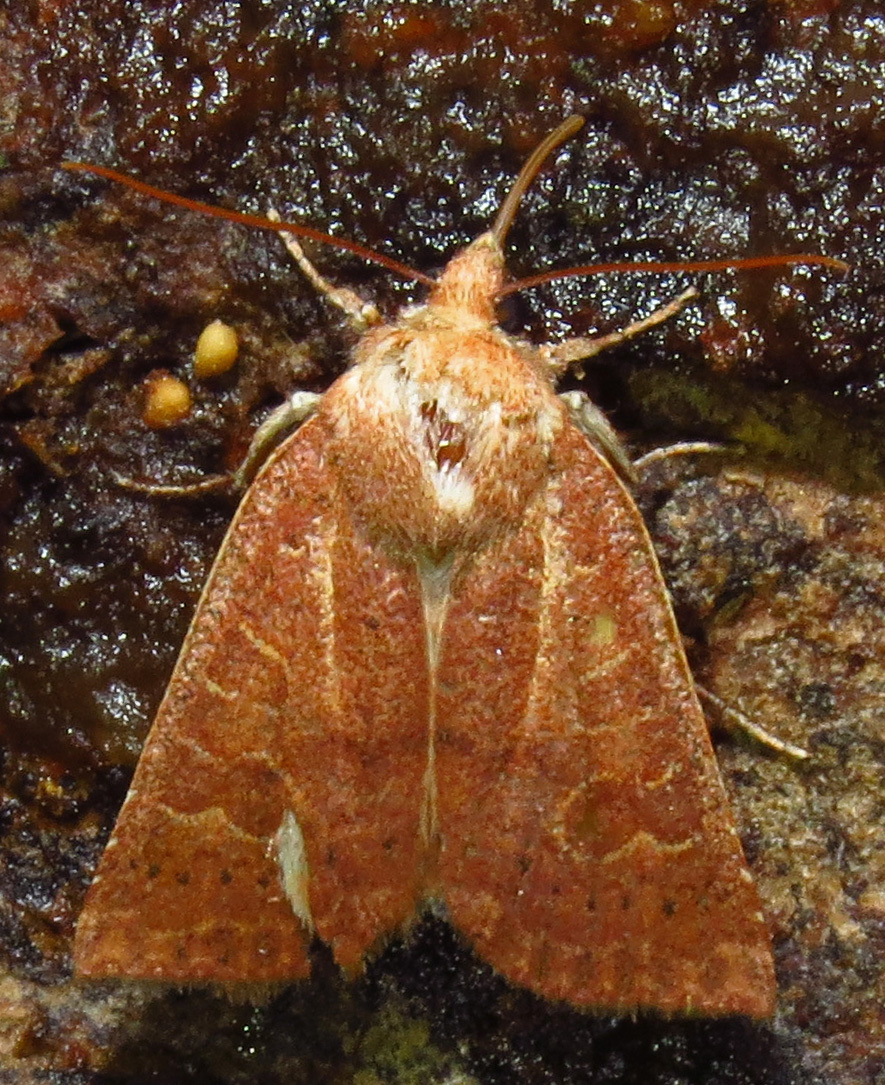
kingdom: Animalia
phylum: Arthropoda
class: Insecta
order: Lepidoptera
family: Noctuidae
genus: Xystopeplus
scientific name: Xystopeplus rufago
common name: Red-winged sallow
